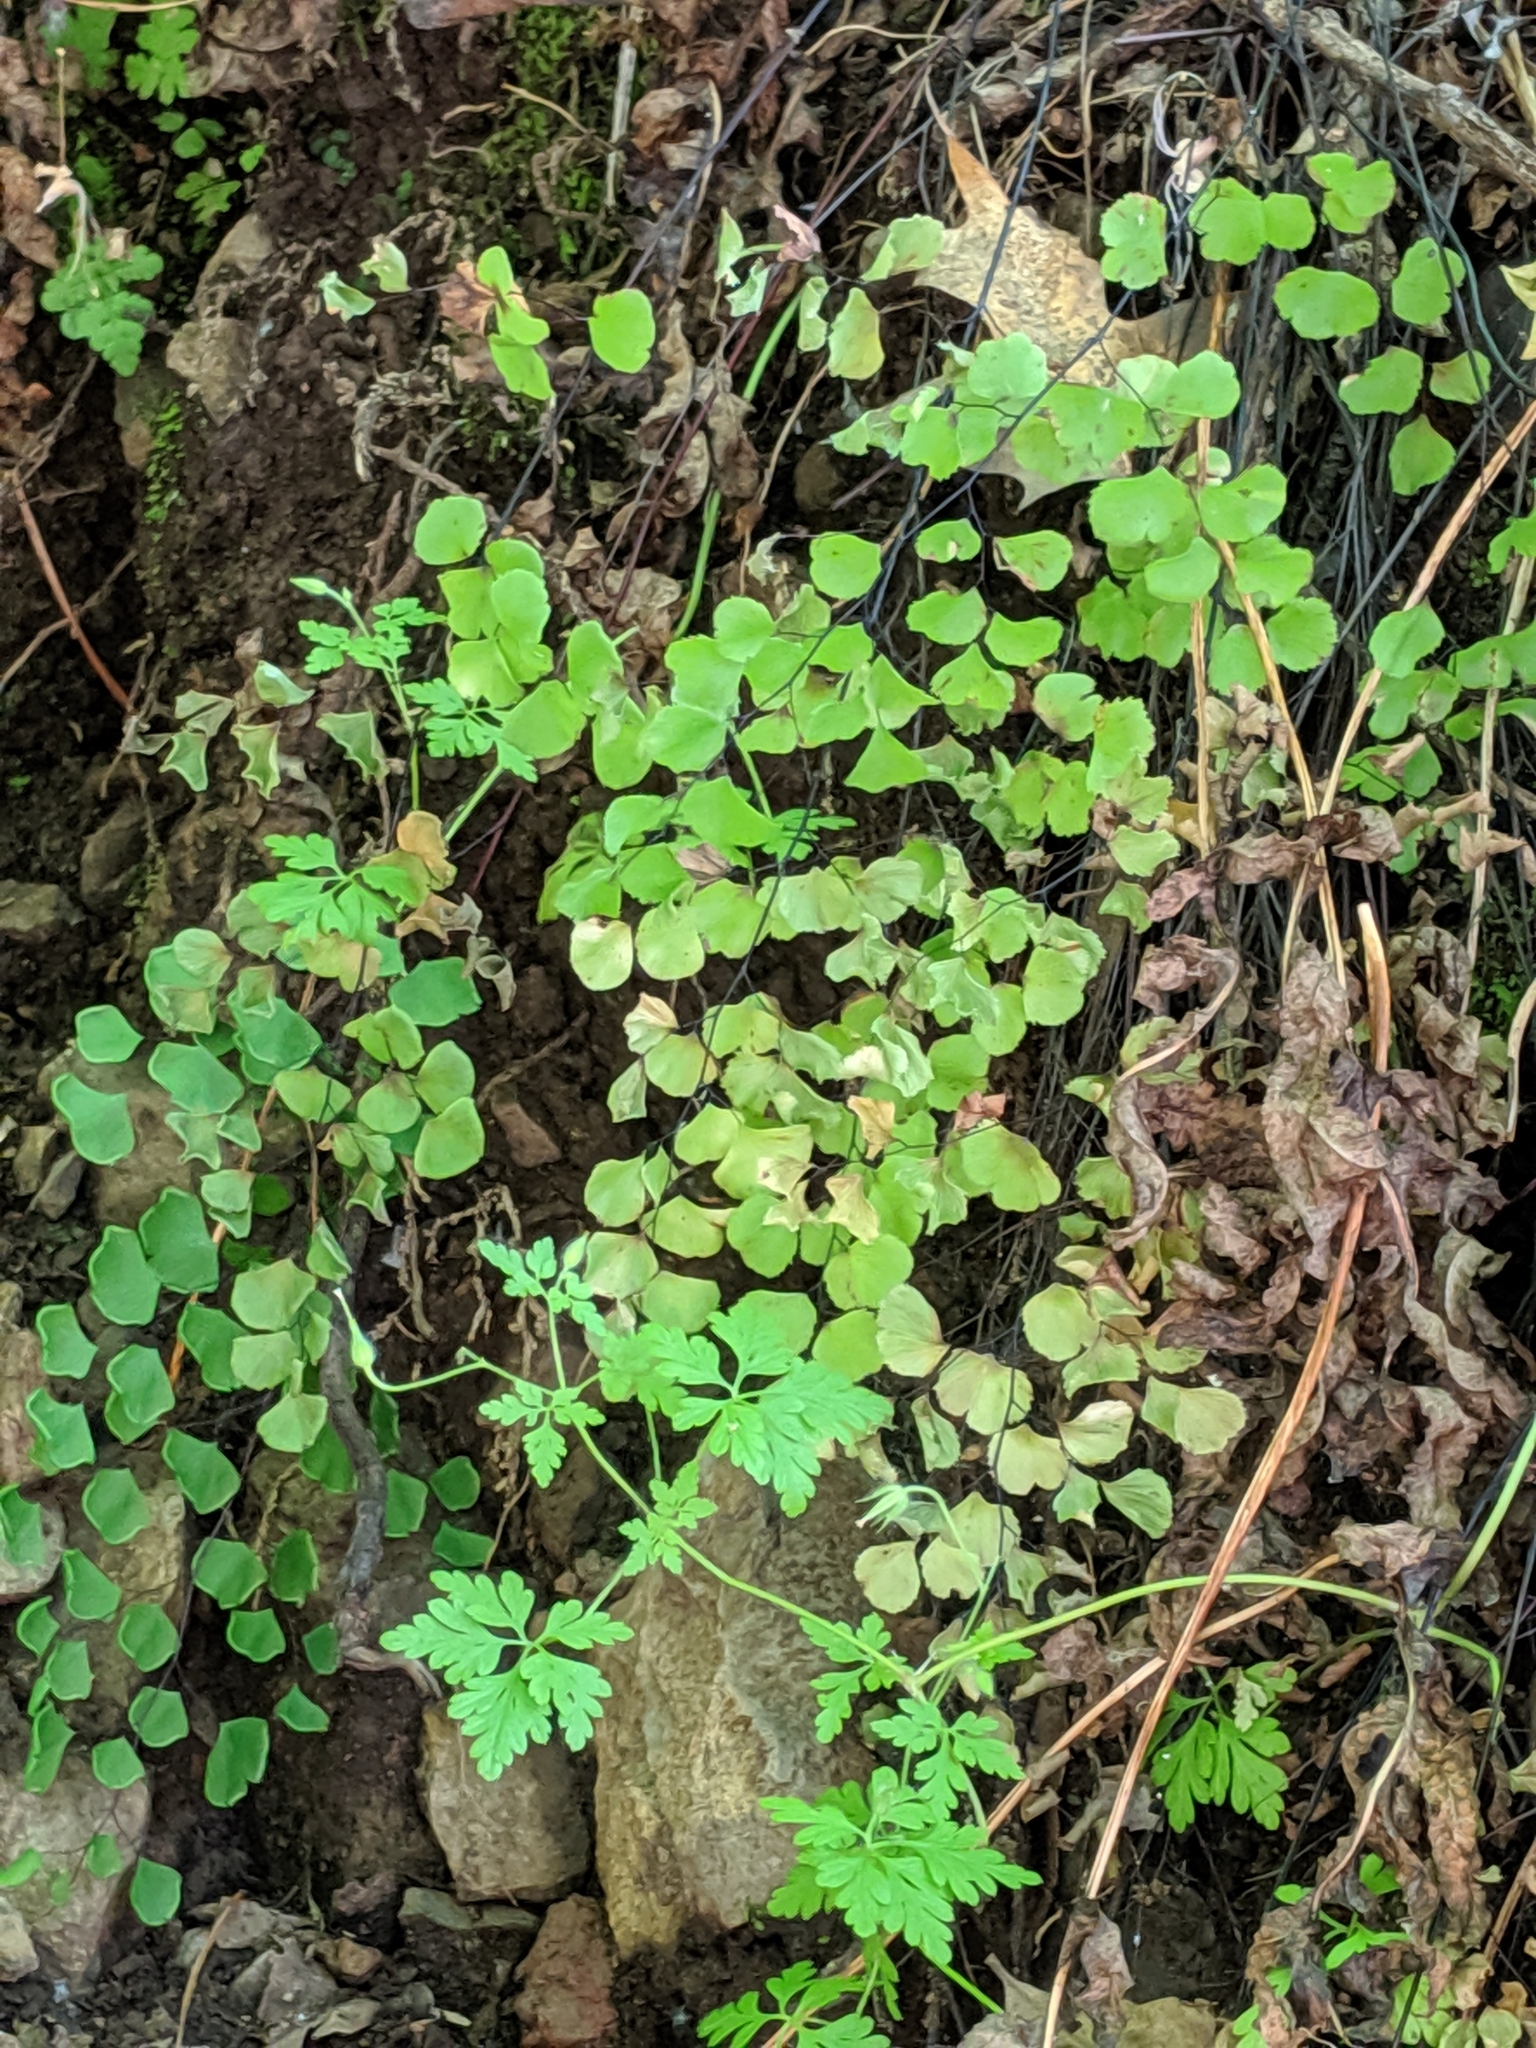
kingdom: Plantae
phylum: Tracheophyta
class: Polypodiopsida
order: Polypodiales
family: Pteridaceae
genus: Adiantum
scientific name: Adiantum jordanii
